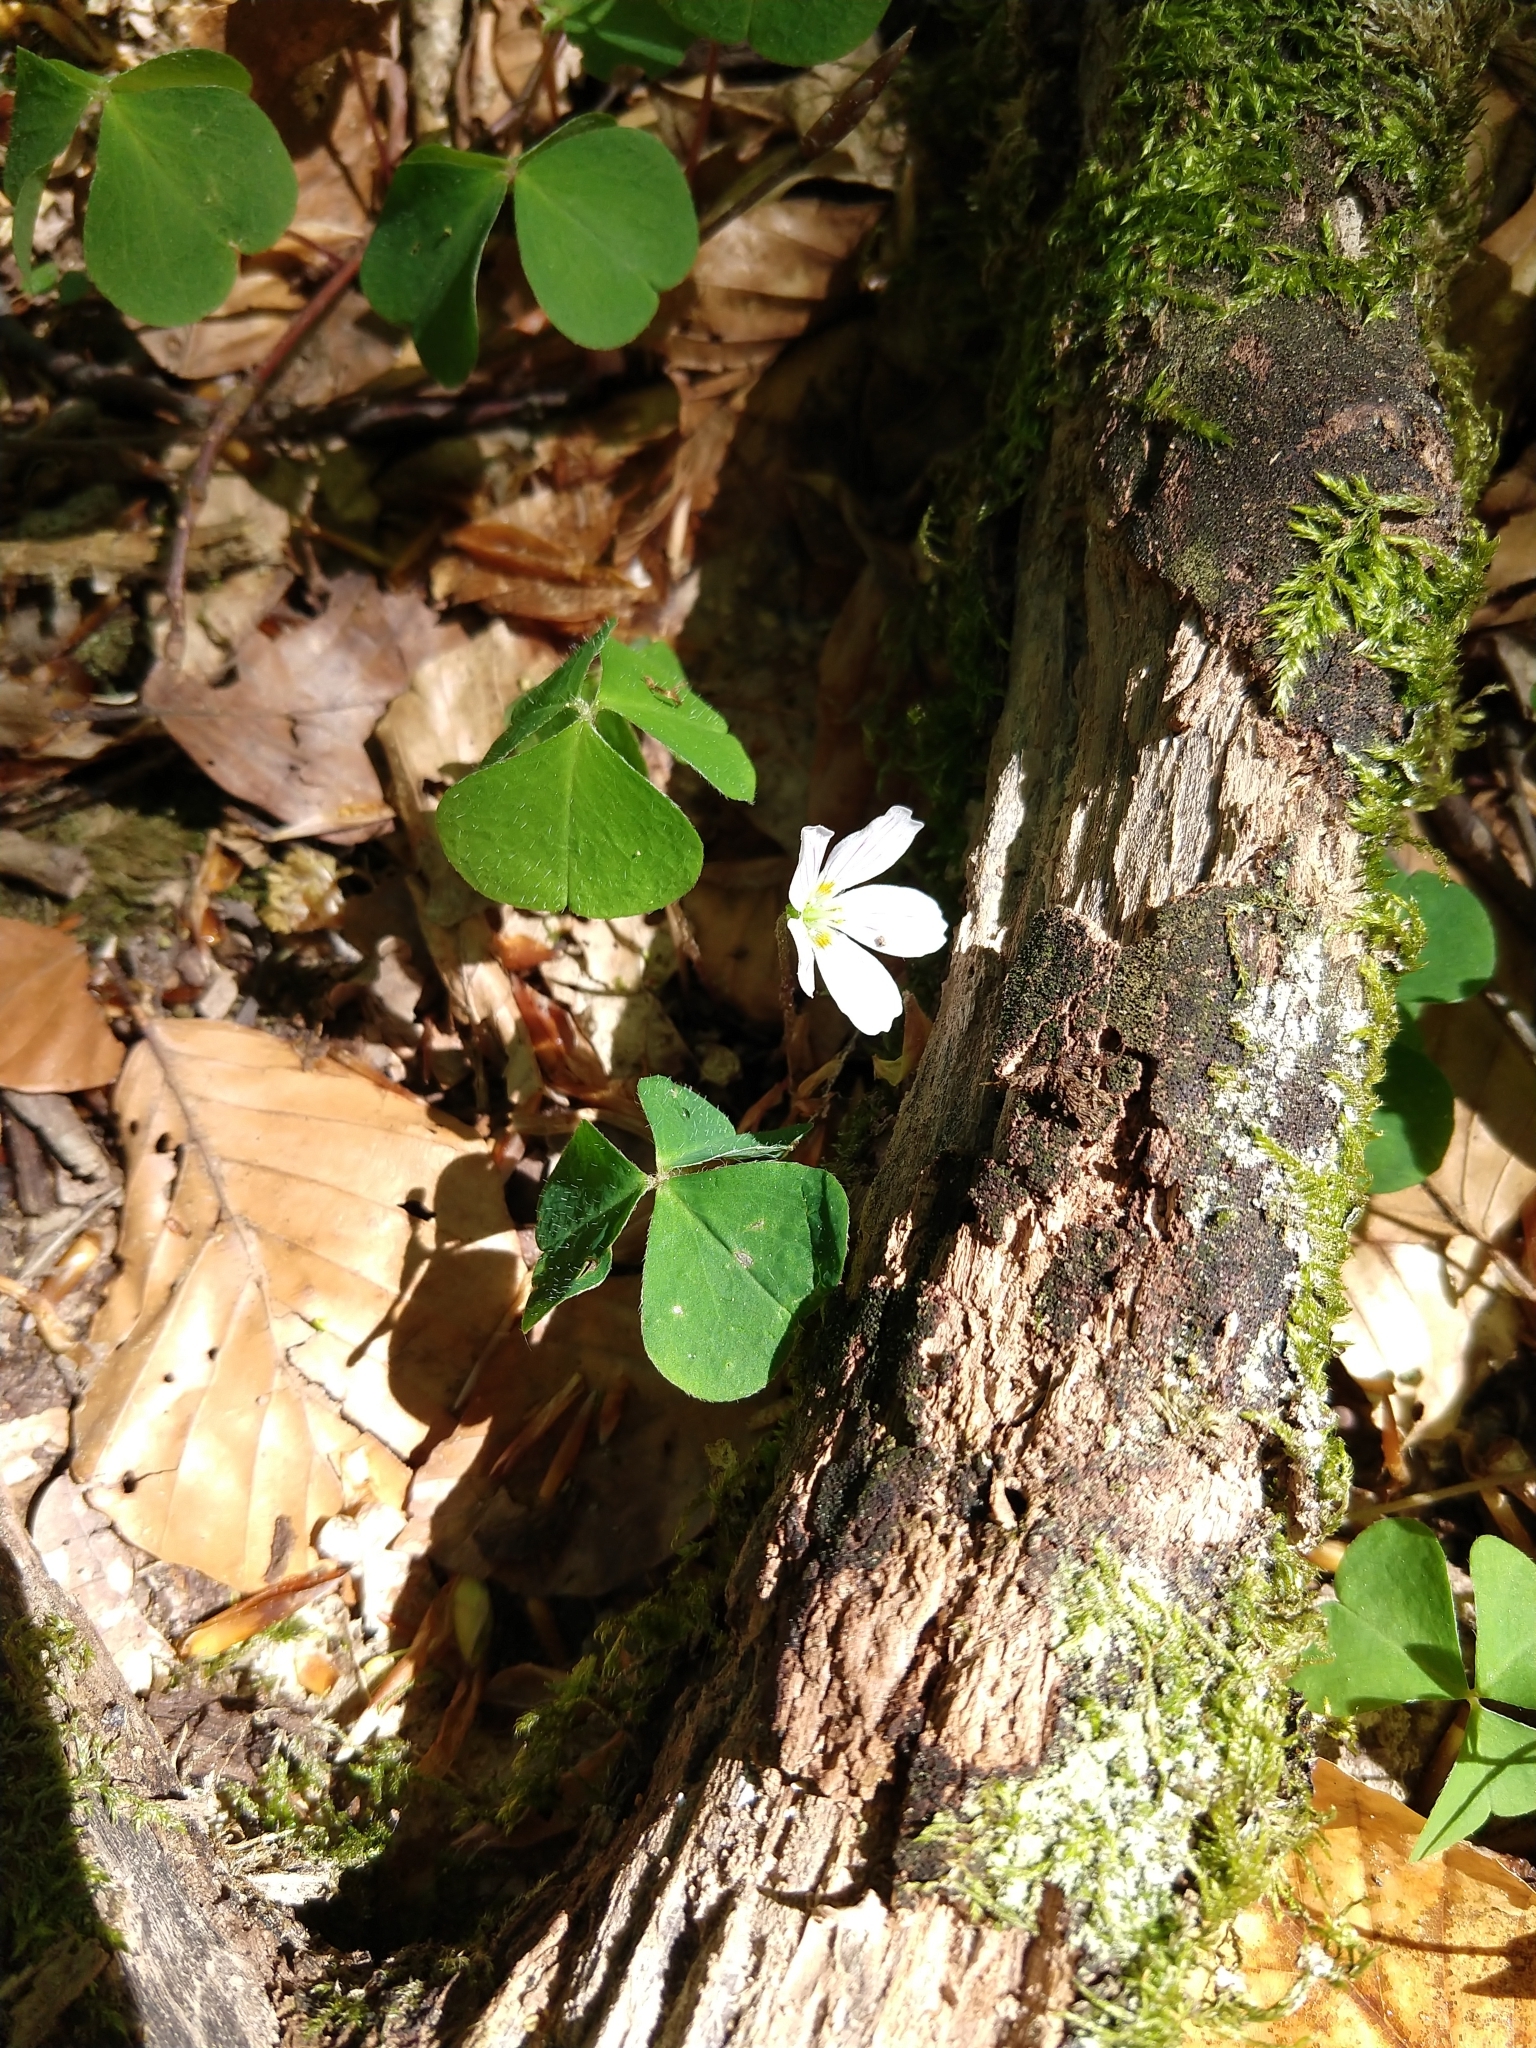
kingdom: Plantae
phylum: Tracheophyta
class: Magnoliopsida
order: Oxalidales
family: Oxalidaceae
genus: Oxalis
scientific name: Oxalis acetosella
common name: Wood-sorrel
